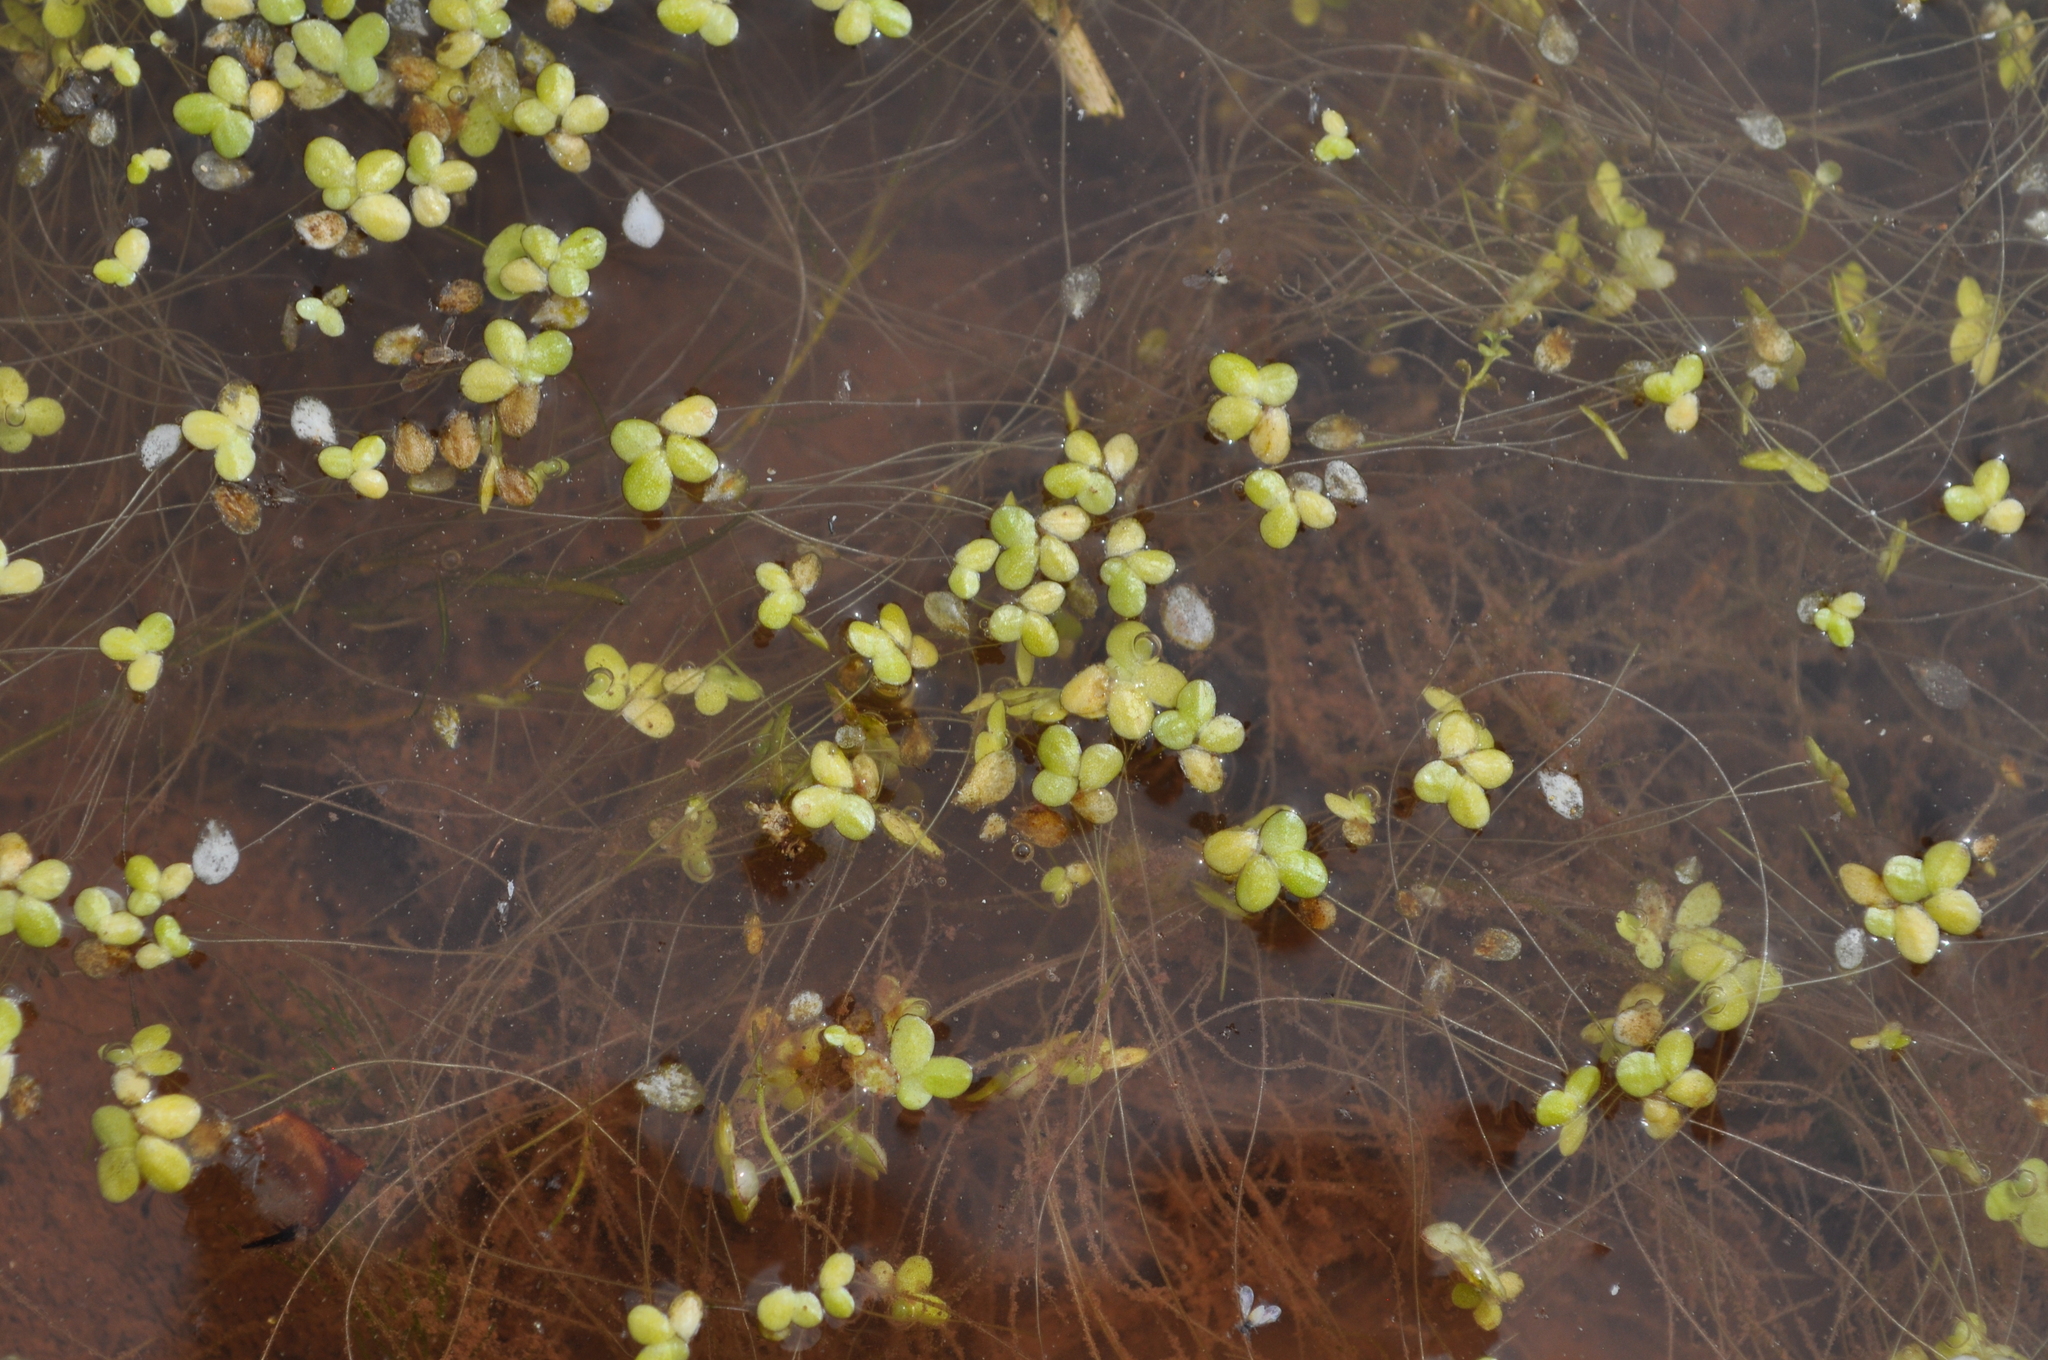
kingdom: Plantae
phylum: Tracheophyta
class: Liliopsida
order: Alismatales
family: Araceae
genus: Lemna
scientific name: Lemna minuta
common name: Least duckweed
